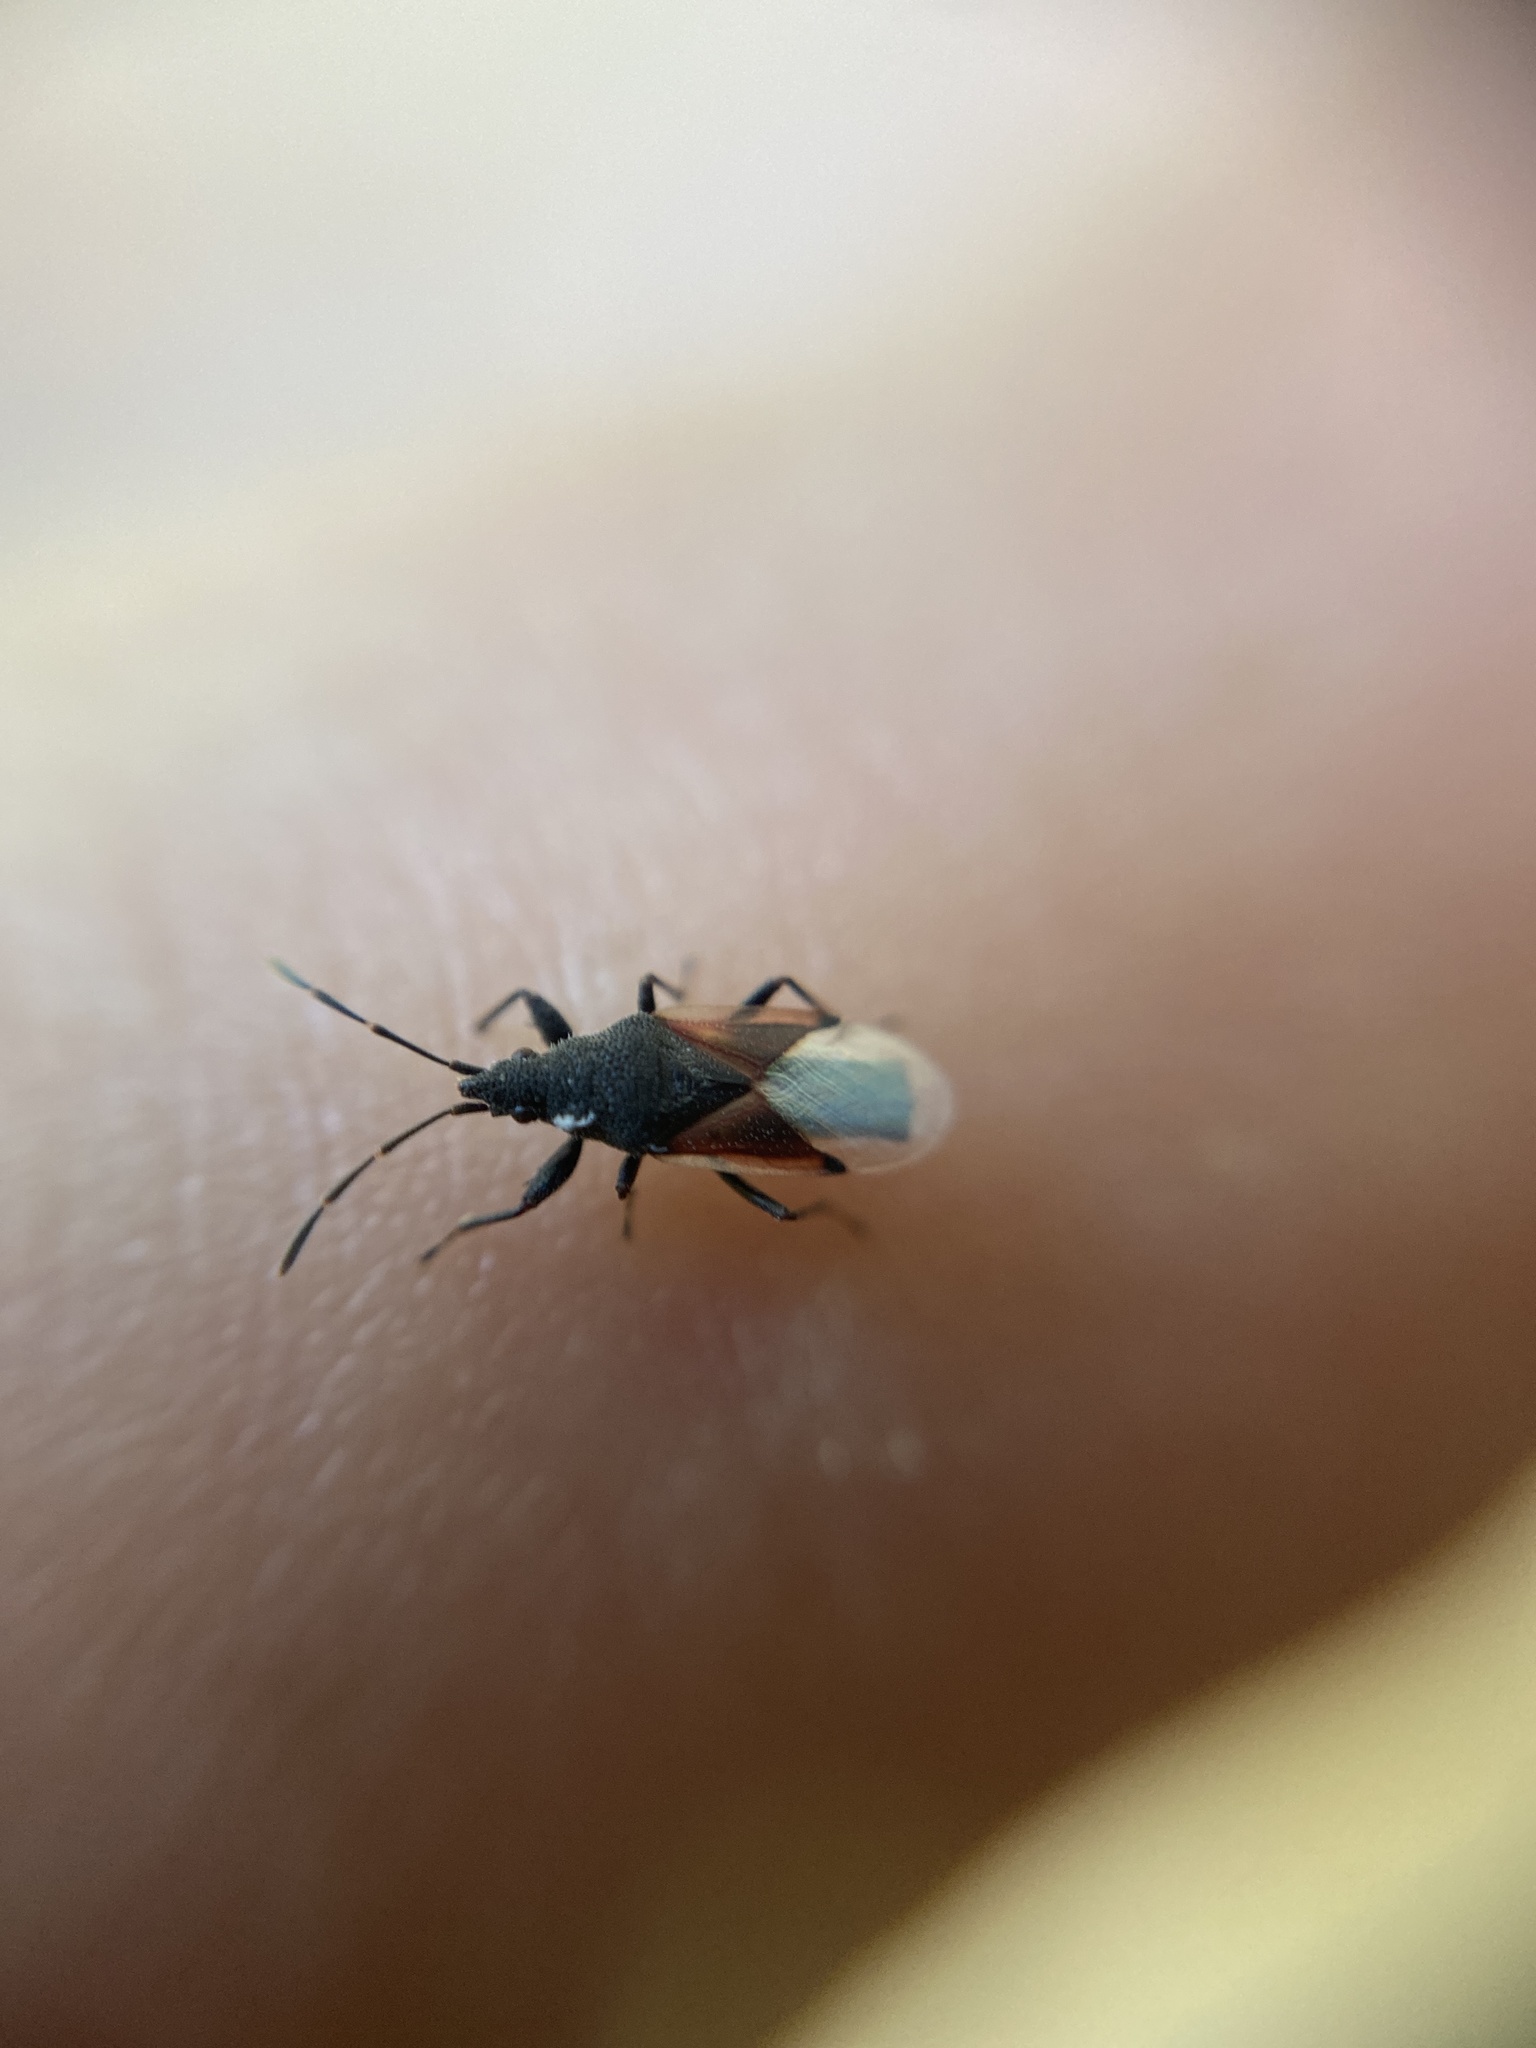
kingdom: Animalia
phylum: Arthropoda
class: Insecta
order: Hemiptera
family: Oxycarenidae
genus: Oxycarenus
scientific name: Oxycarenus lavaterae
